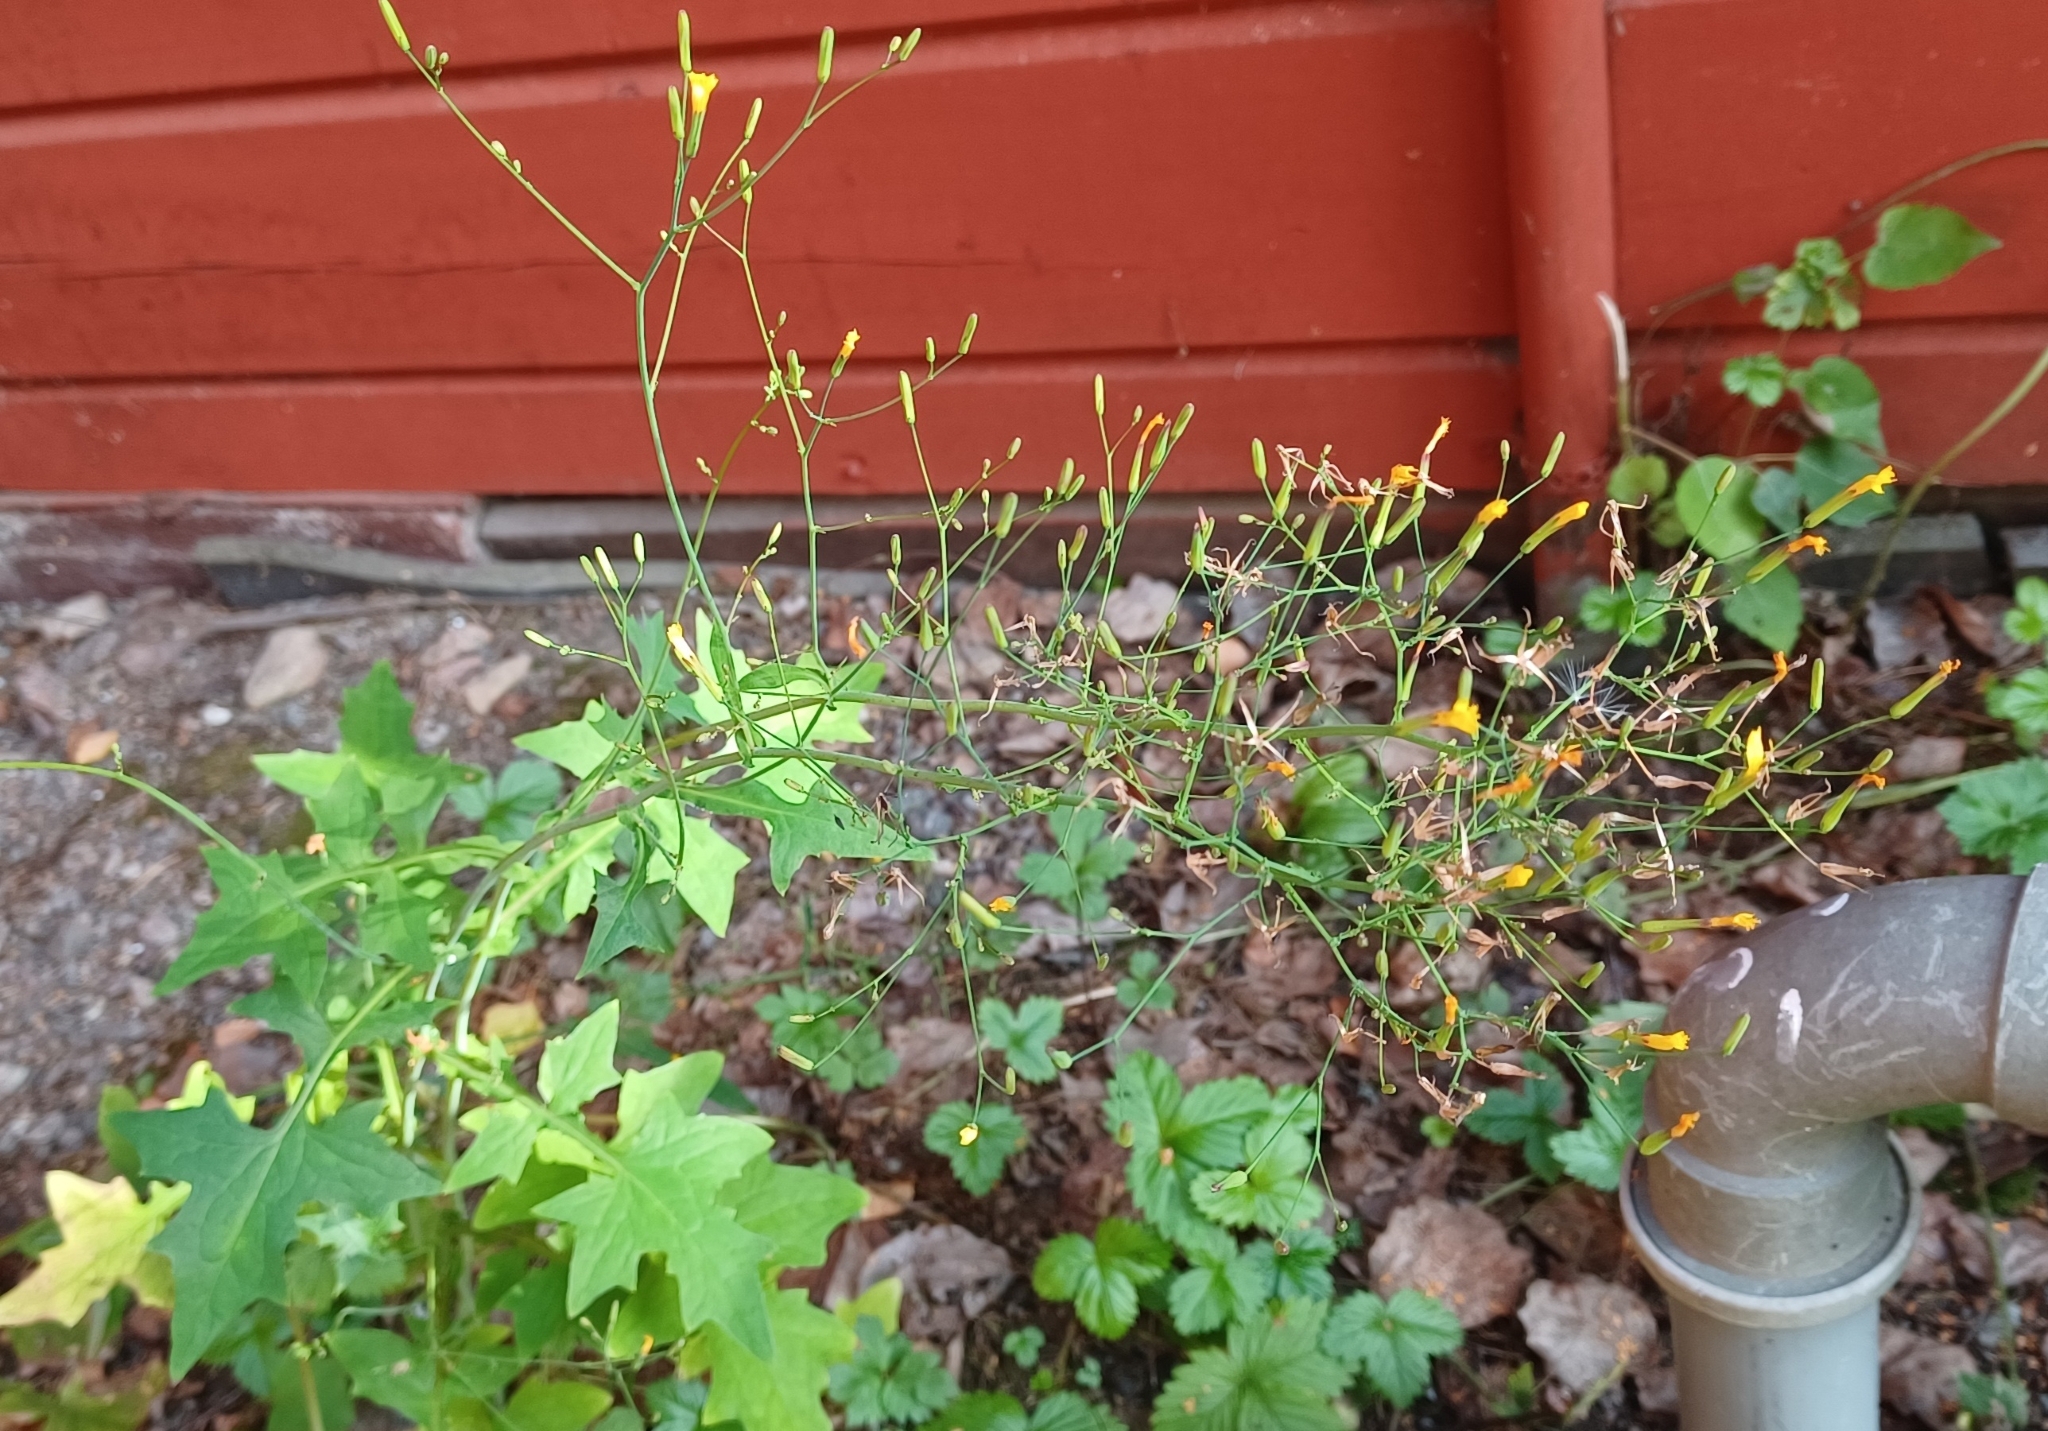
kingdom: Plantae
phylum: Tracheophyta
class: Magnoliopsida
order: Asterales
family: Asteraceae
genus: Mycelis
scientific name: Mycelis muralis
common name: Wall lettuce
